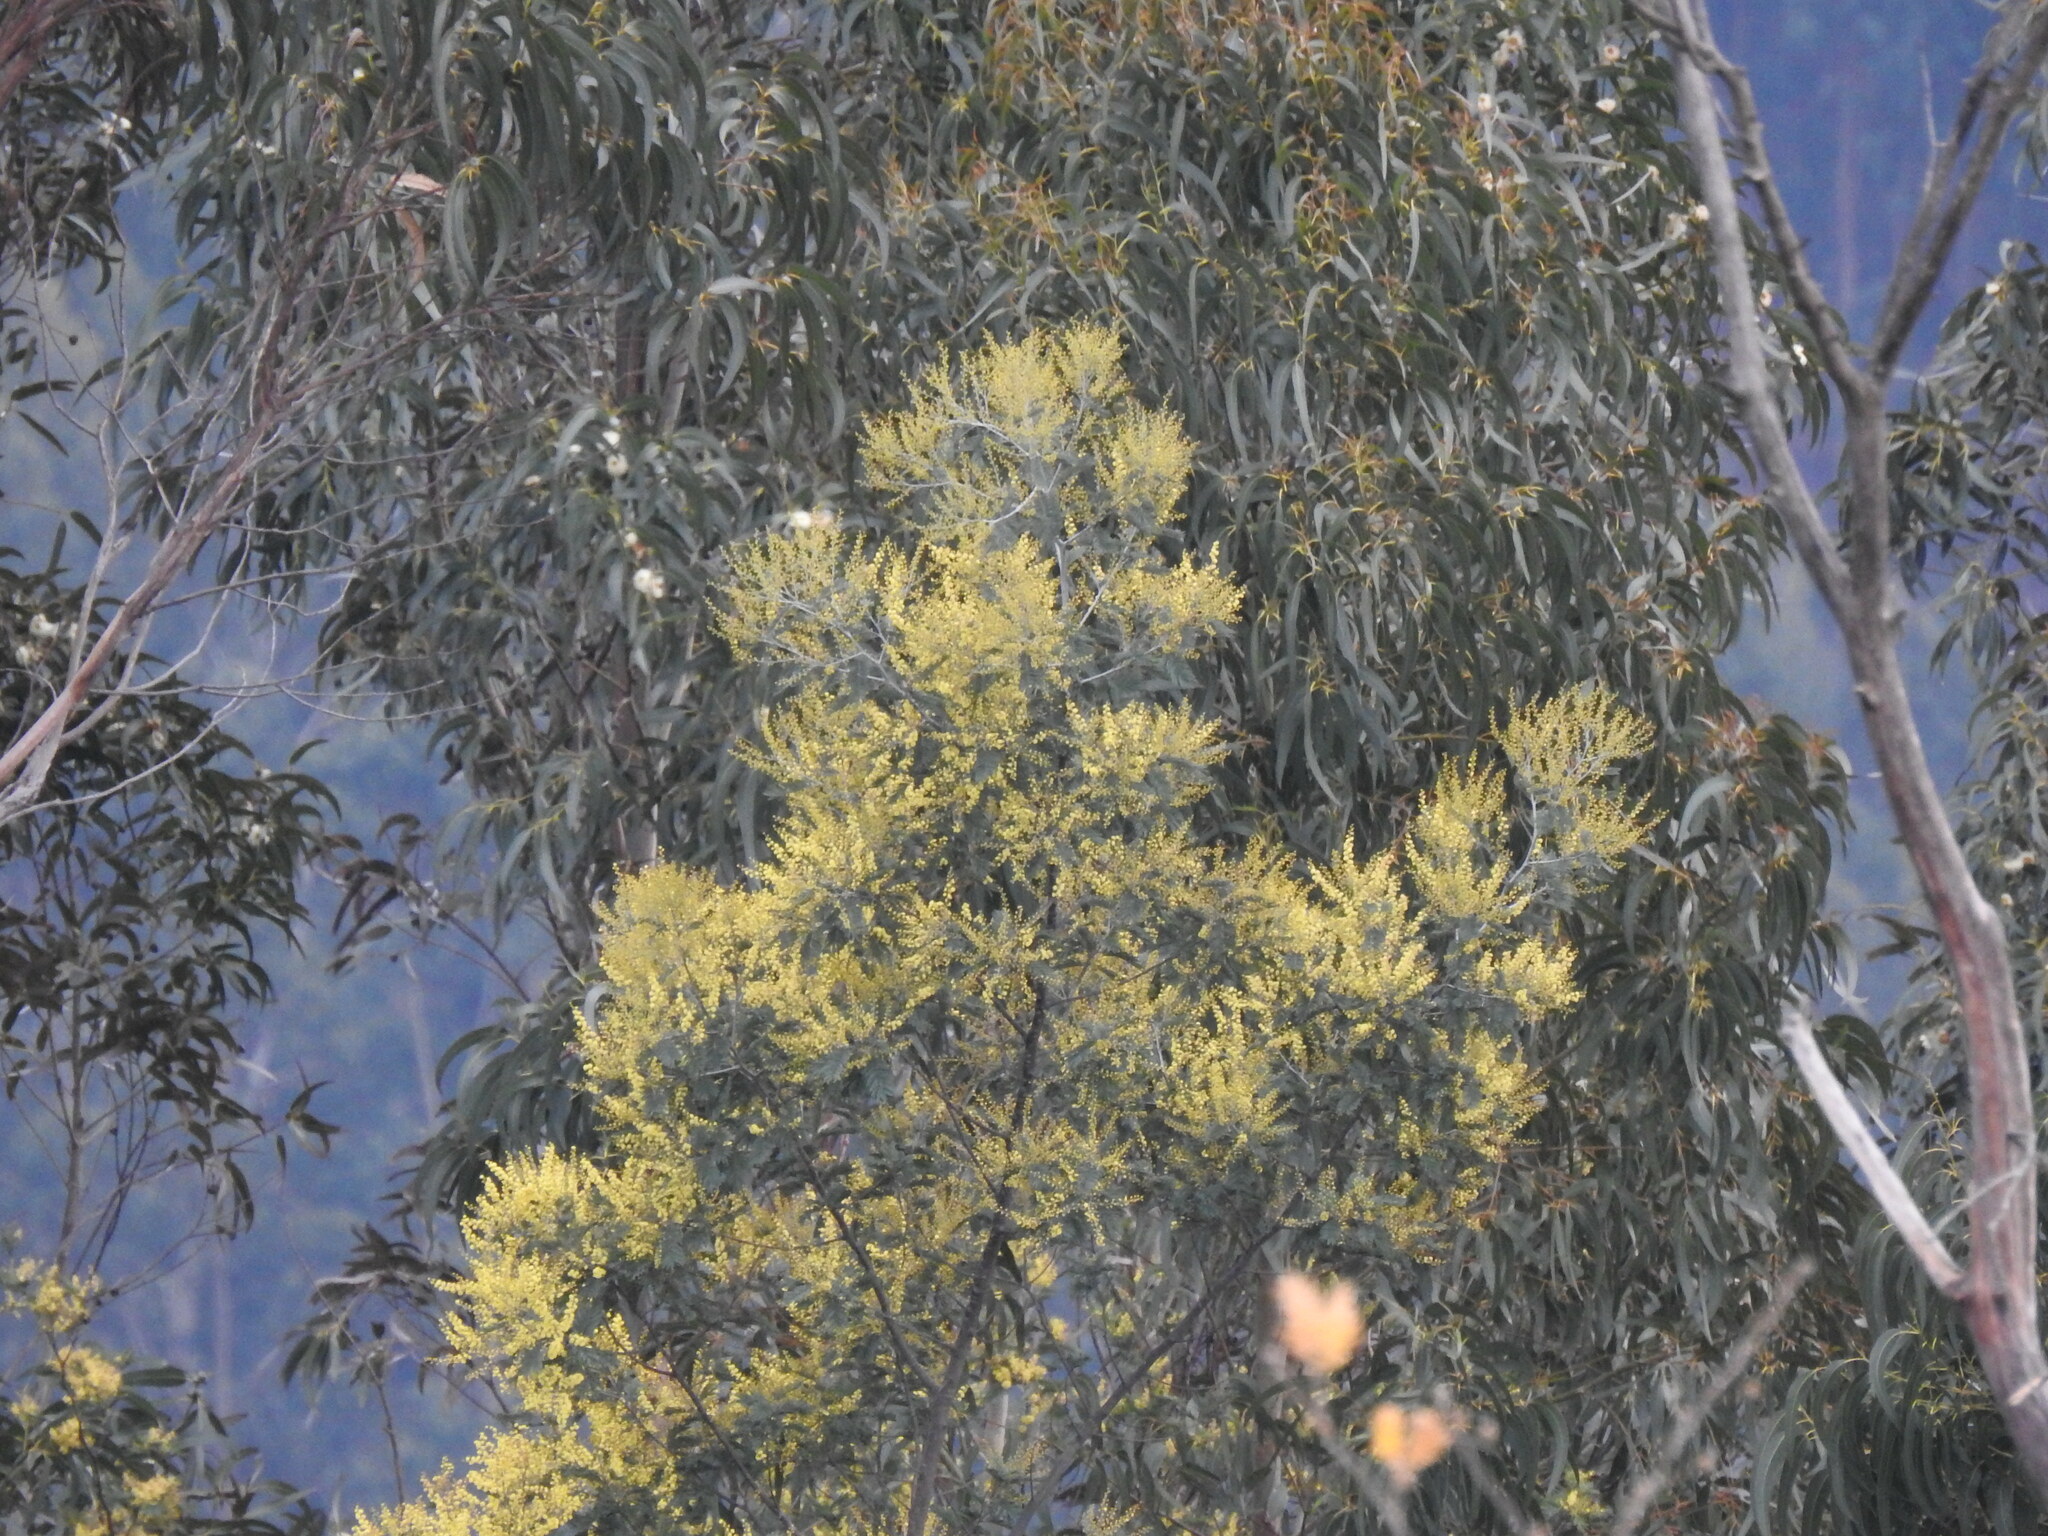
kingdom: Plantae
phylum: Tracheophyta
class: Magnoliopsida
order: Fabales
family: Fabaceae
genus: Acacia
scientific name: Acacia dealbata
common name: Silver wattle
